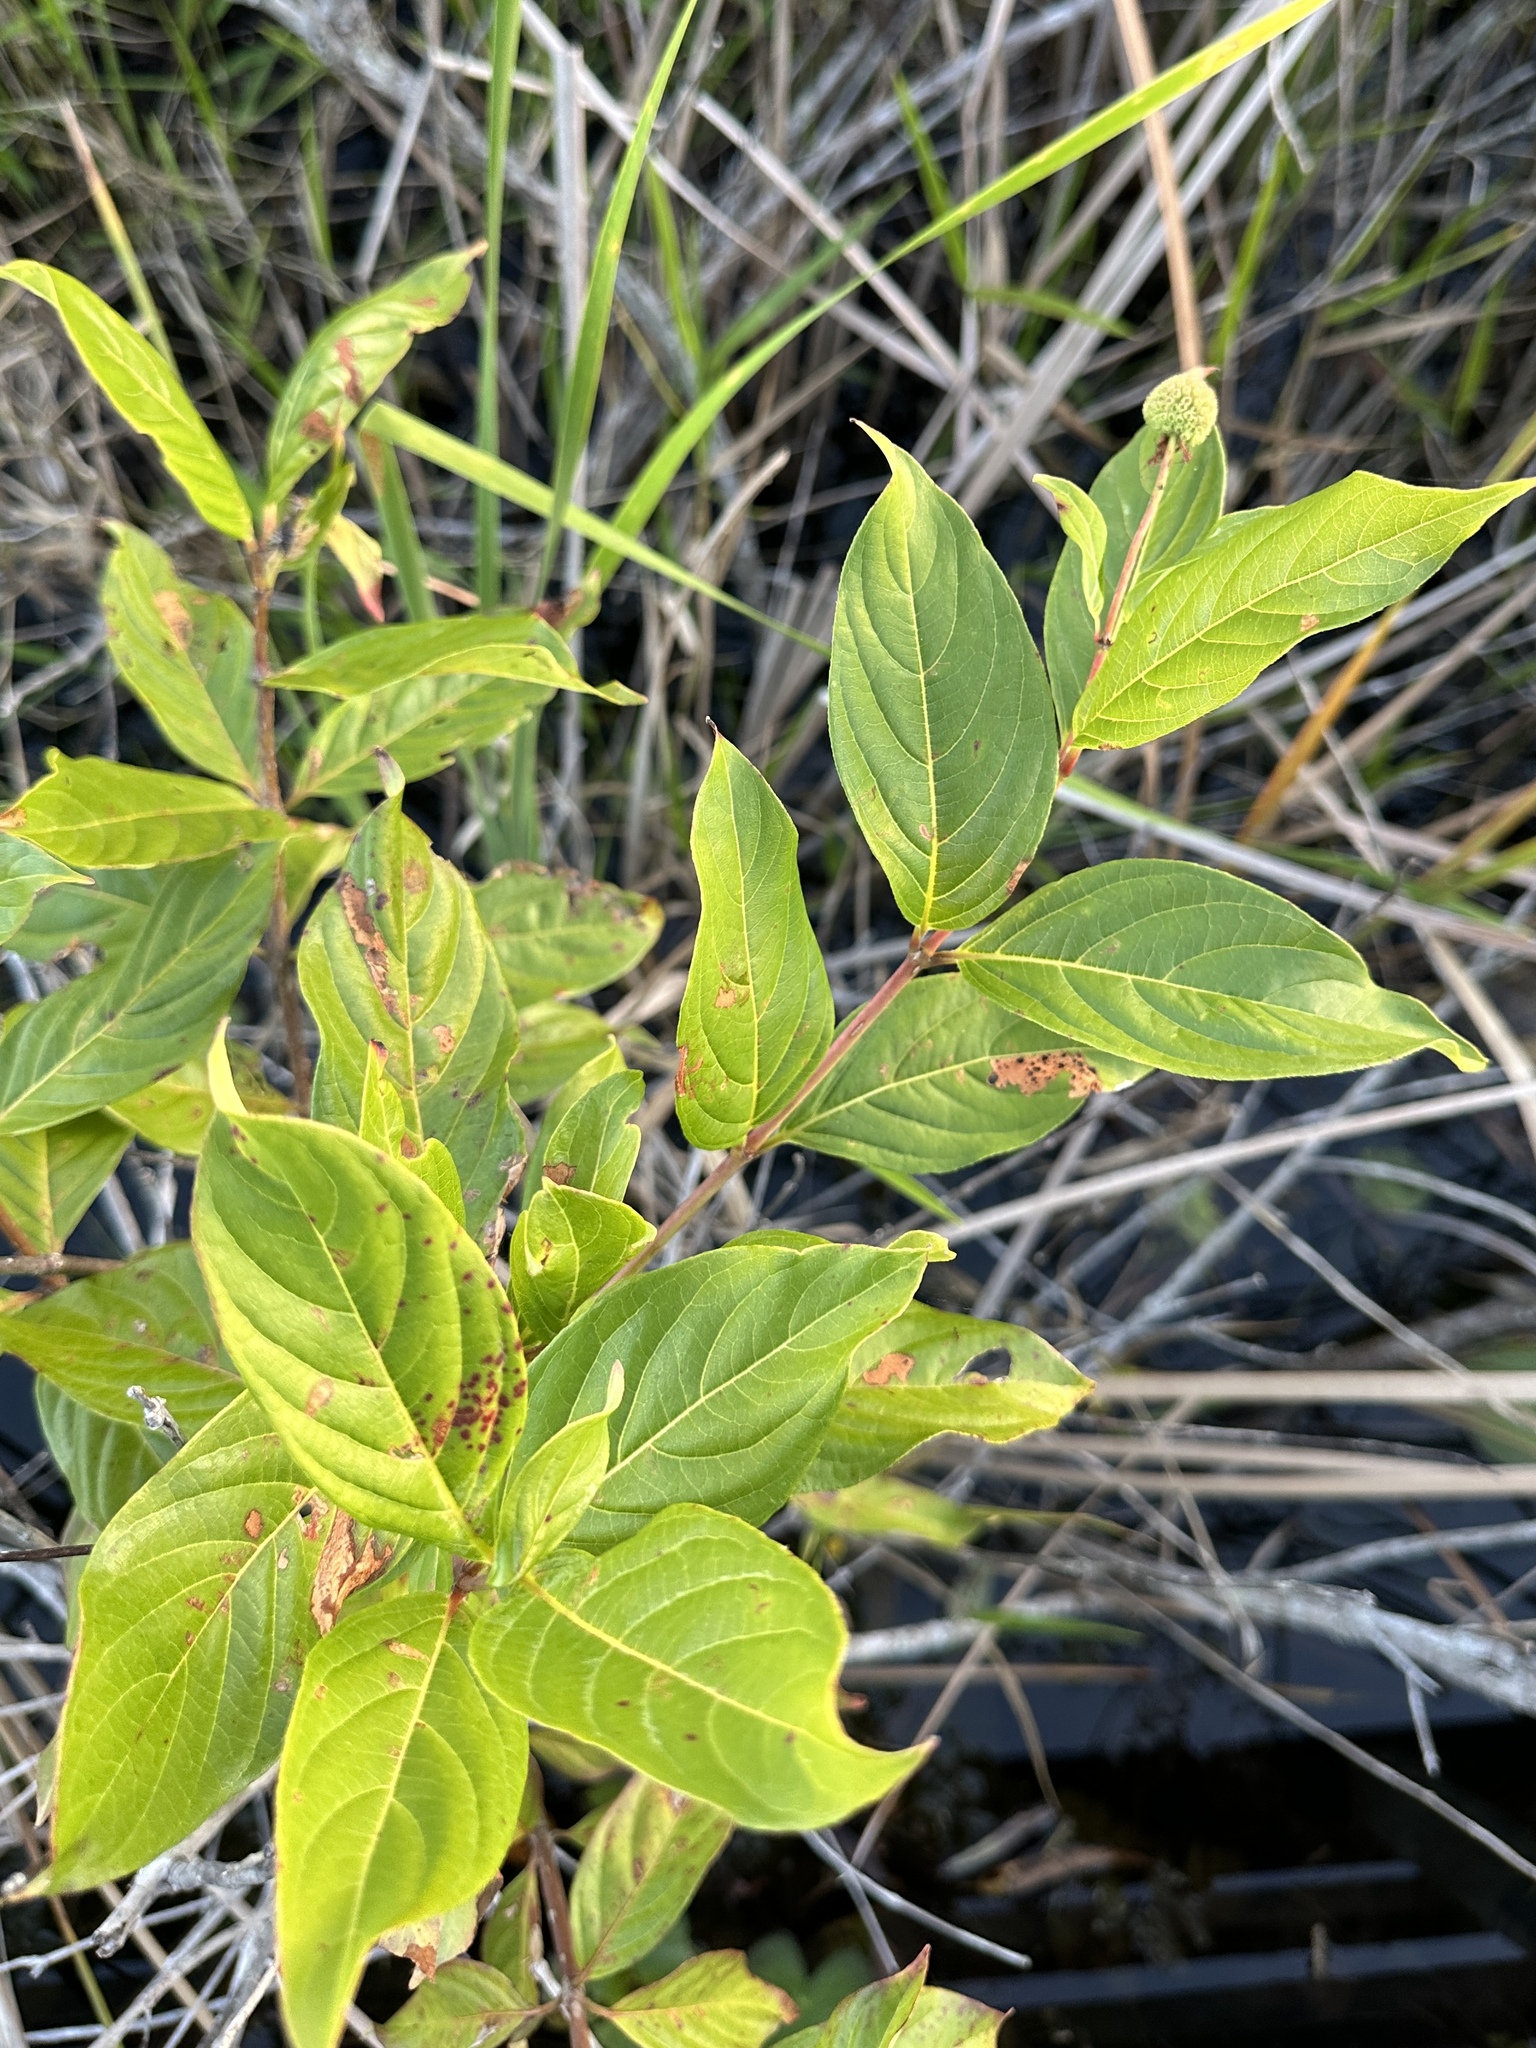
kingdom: Plantae
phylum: Tracheophyta
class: Magnoliopsida
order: Gentianales
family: Rubiaceae
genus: Cephalanthus
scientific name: Cephalanthus occidentalis
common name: Button-willow
